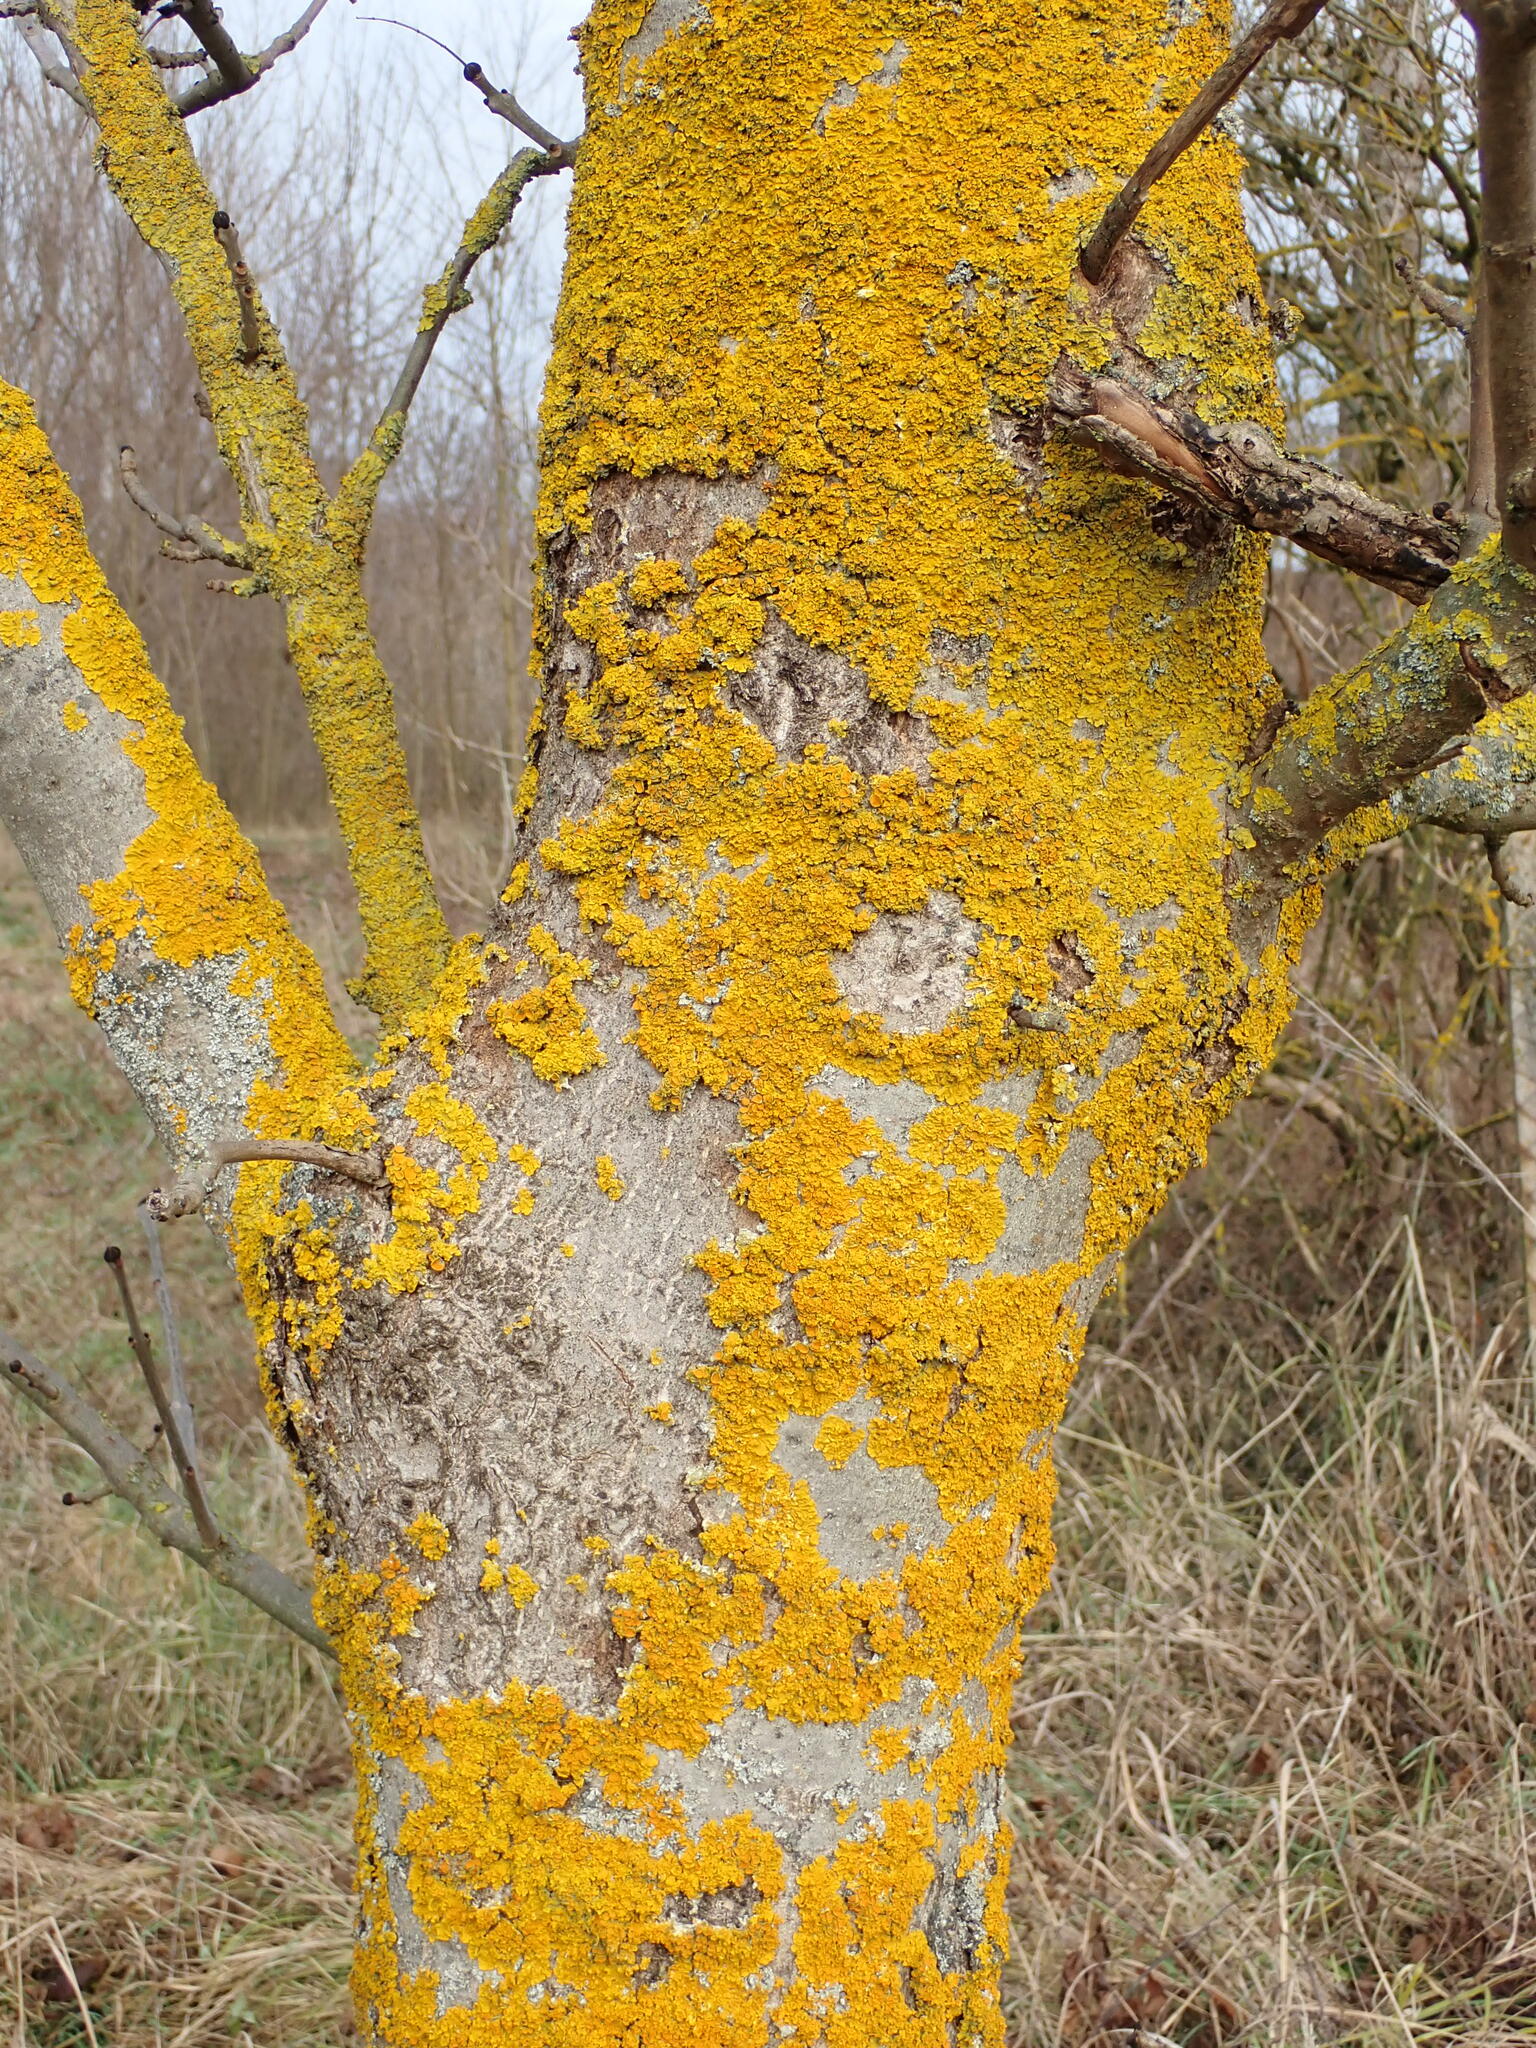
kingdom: Fungi
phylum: Ascomycota
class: Lecanoromycetes
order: Teloschistales
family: Teloschistaceae
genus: Xanthoria
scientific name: Xanthoria parietina
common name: Common orange lichen
